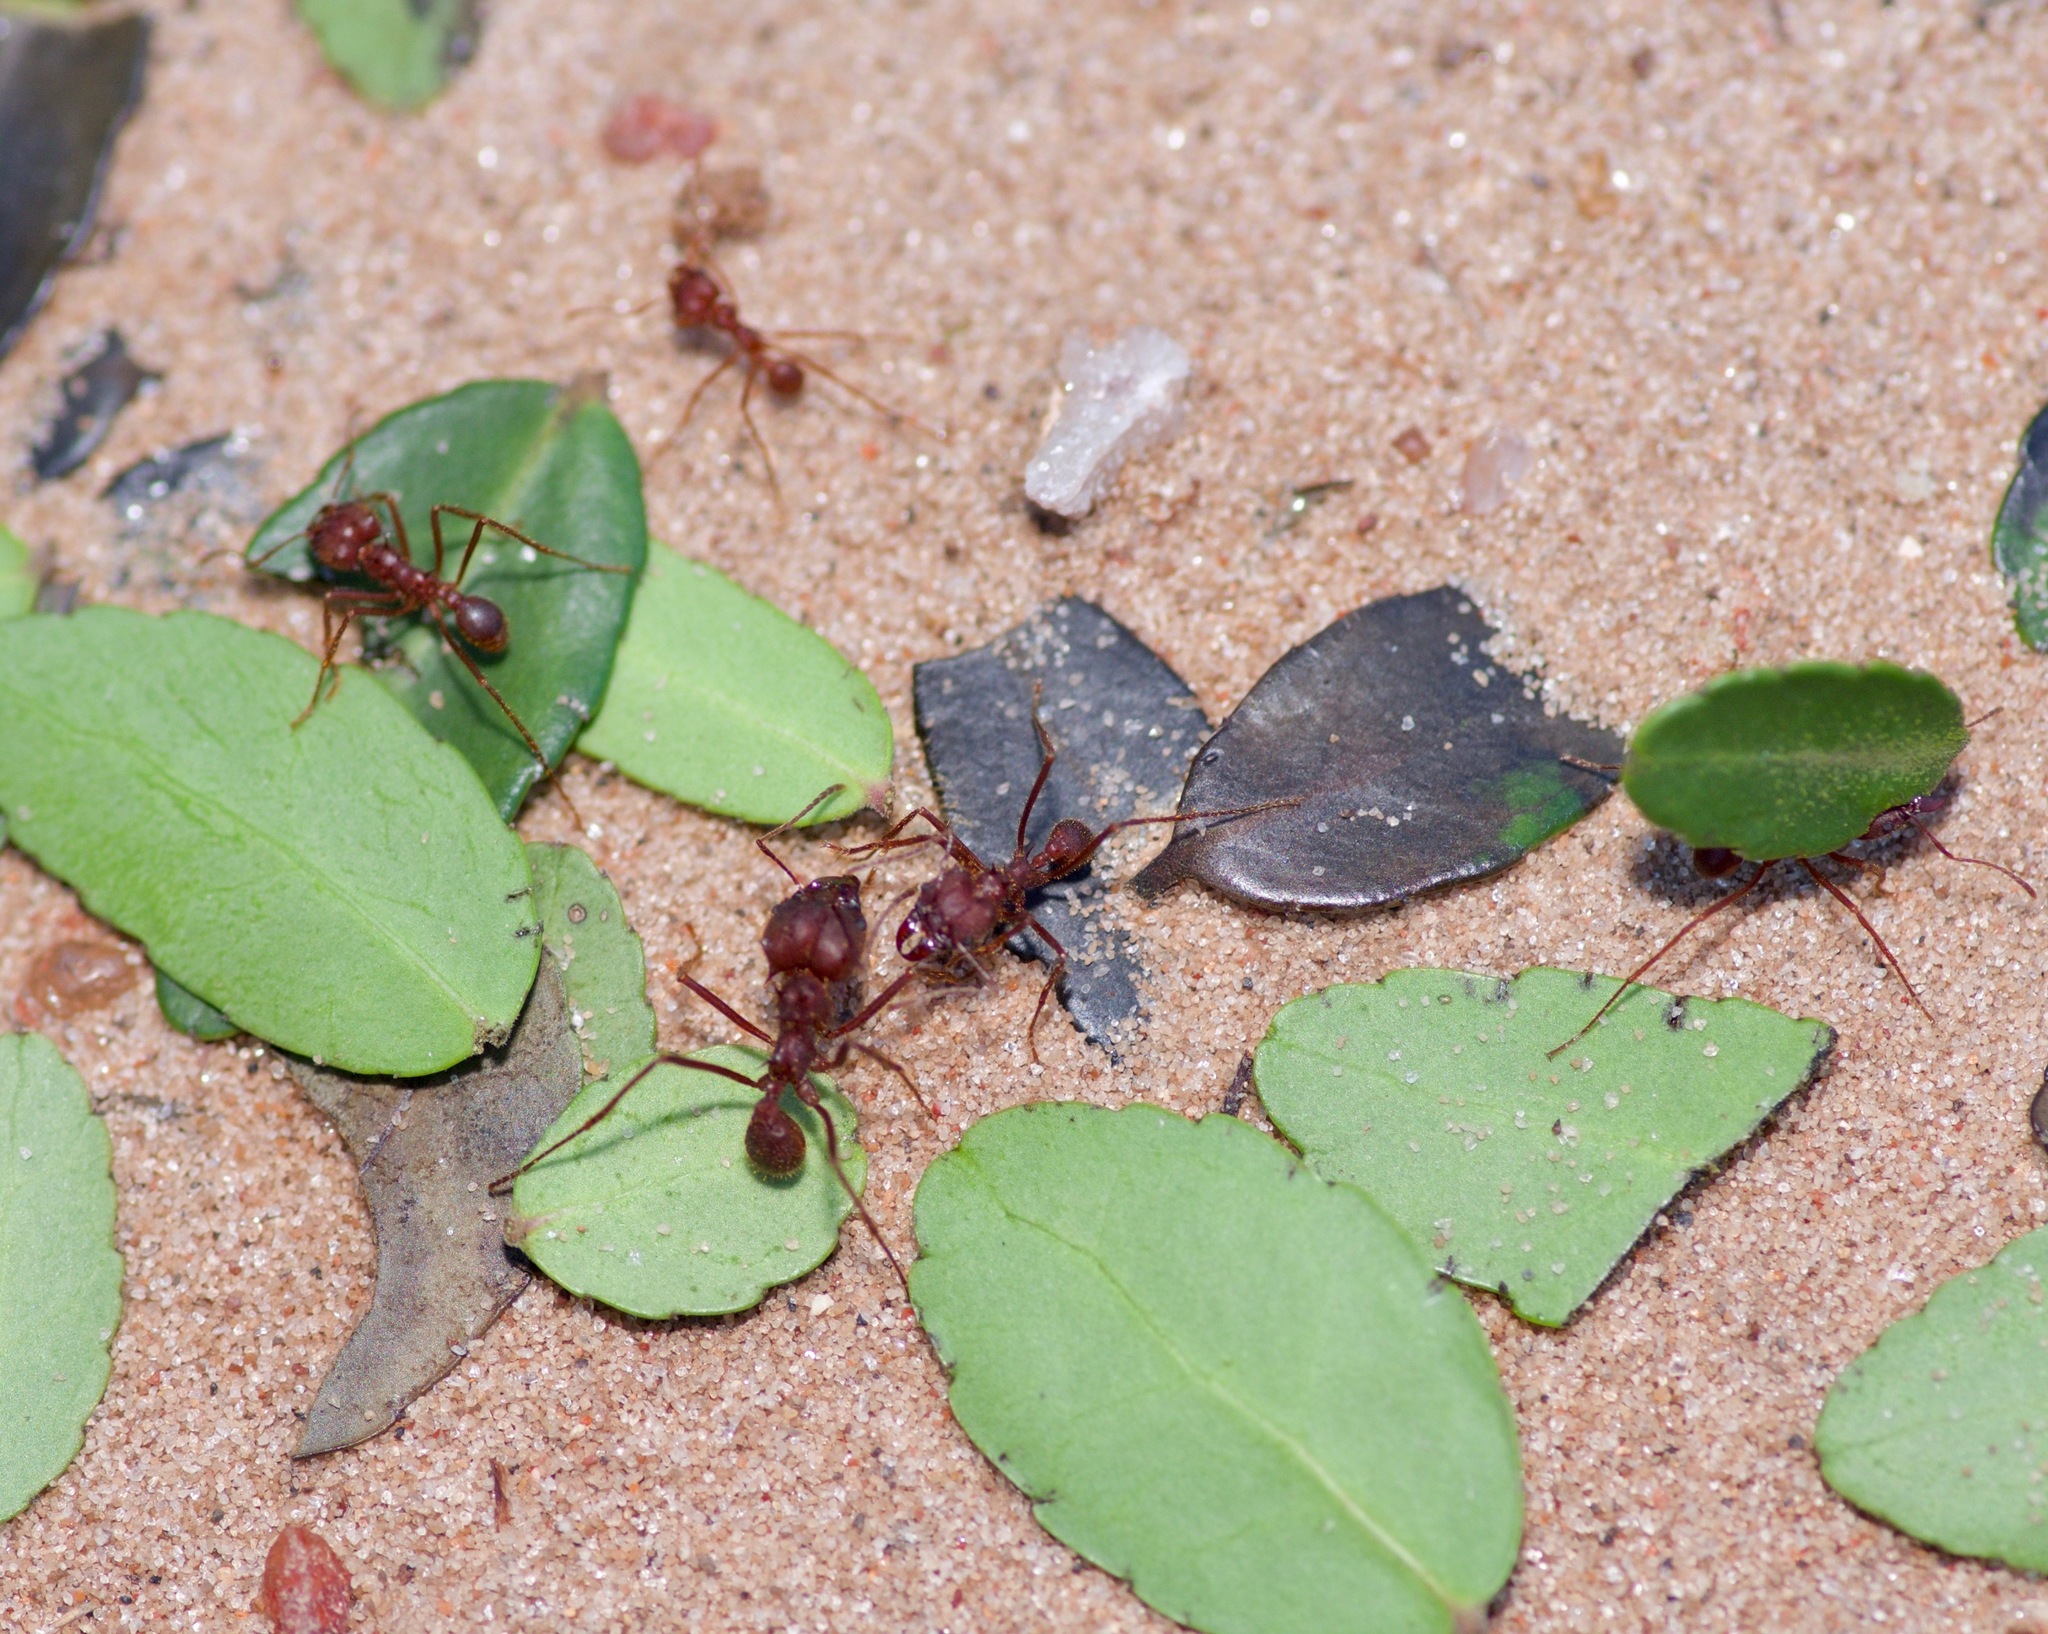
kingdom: Animalia
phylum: Arthropoda
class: Insecta
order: Hymenoptera
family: Formicidae
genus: Atta
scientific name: Atta texana
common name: Texas leafcutting ant
